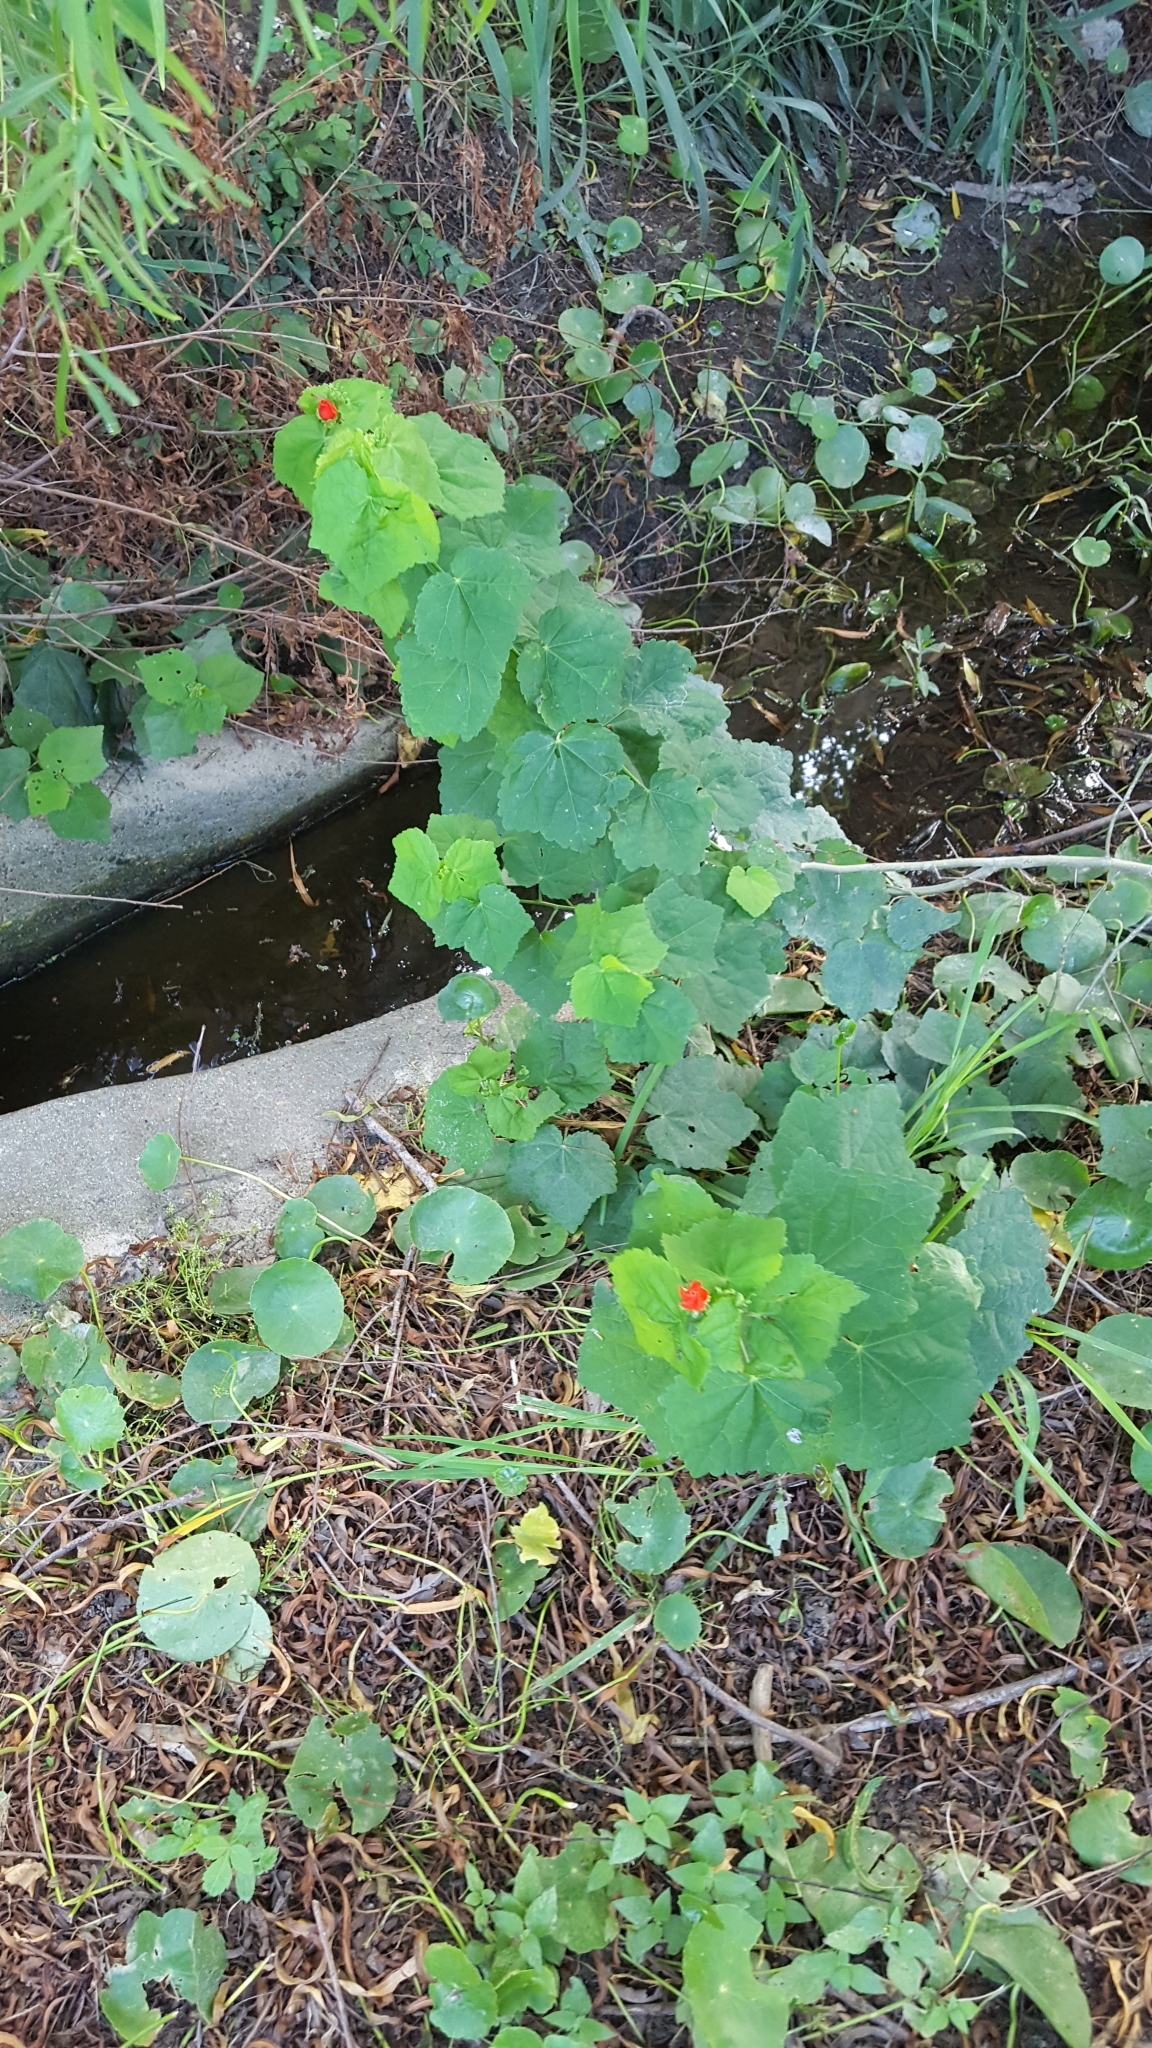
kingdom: Plantae
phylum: Tracheophyta
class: Magnoliopsida
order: Malvales
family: Malvaceae
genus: Malvaviscus
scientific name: Malvaviscus arboreus
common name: Wax mallow
